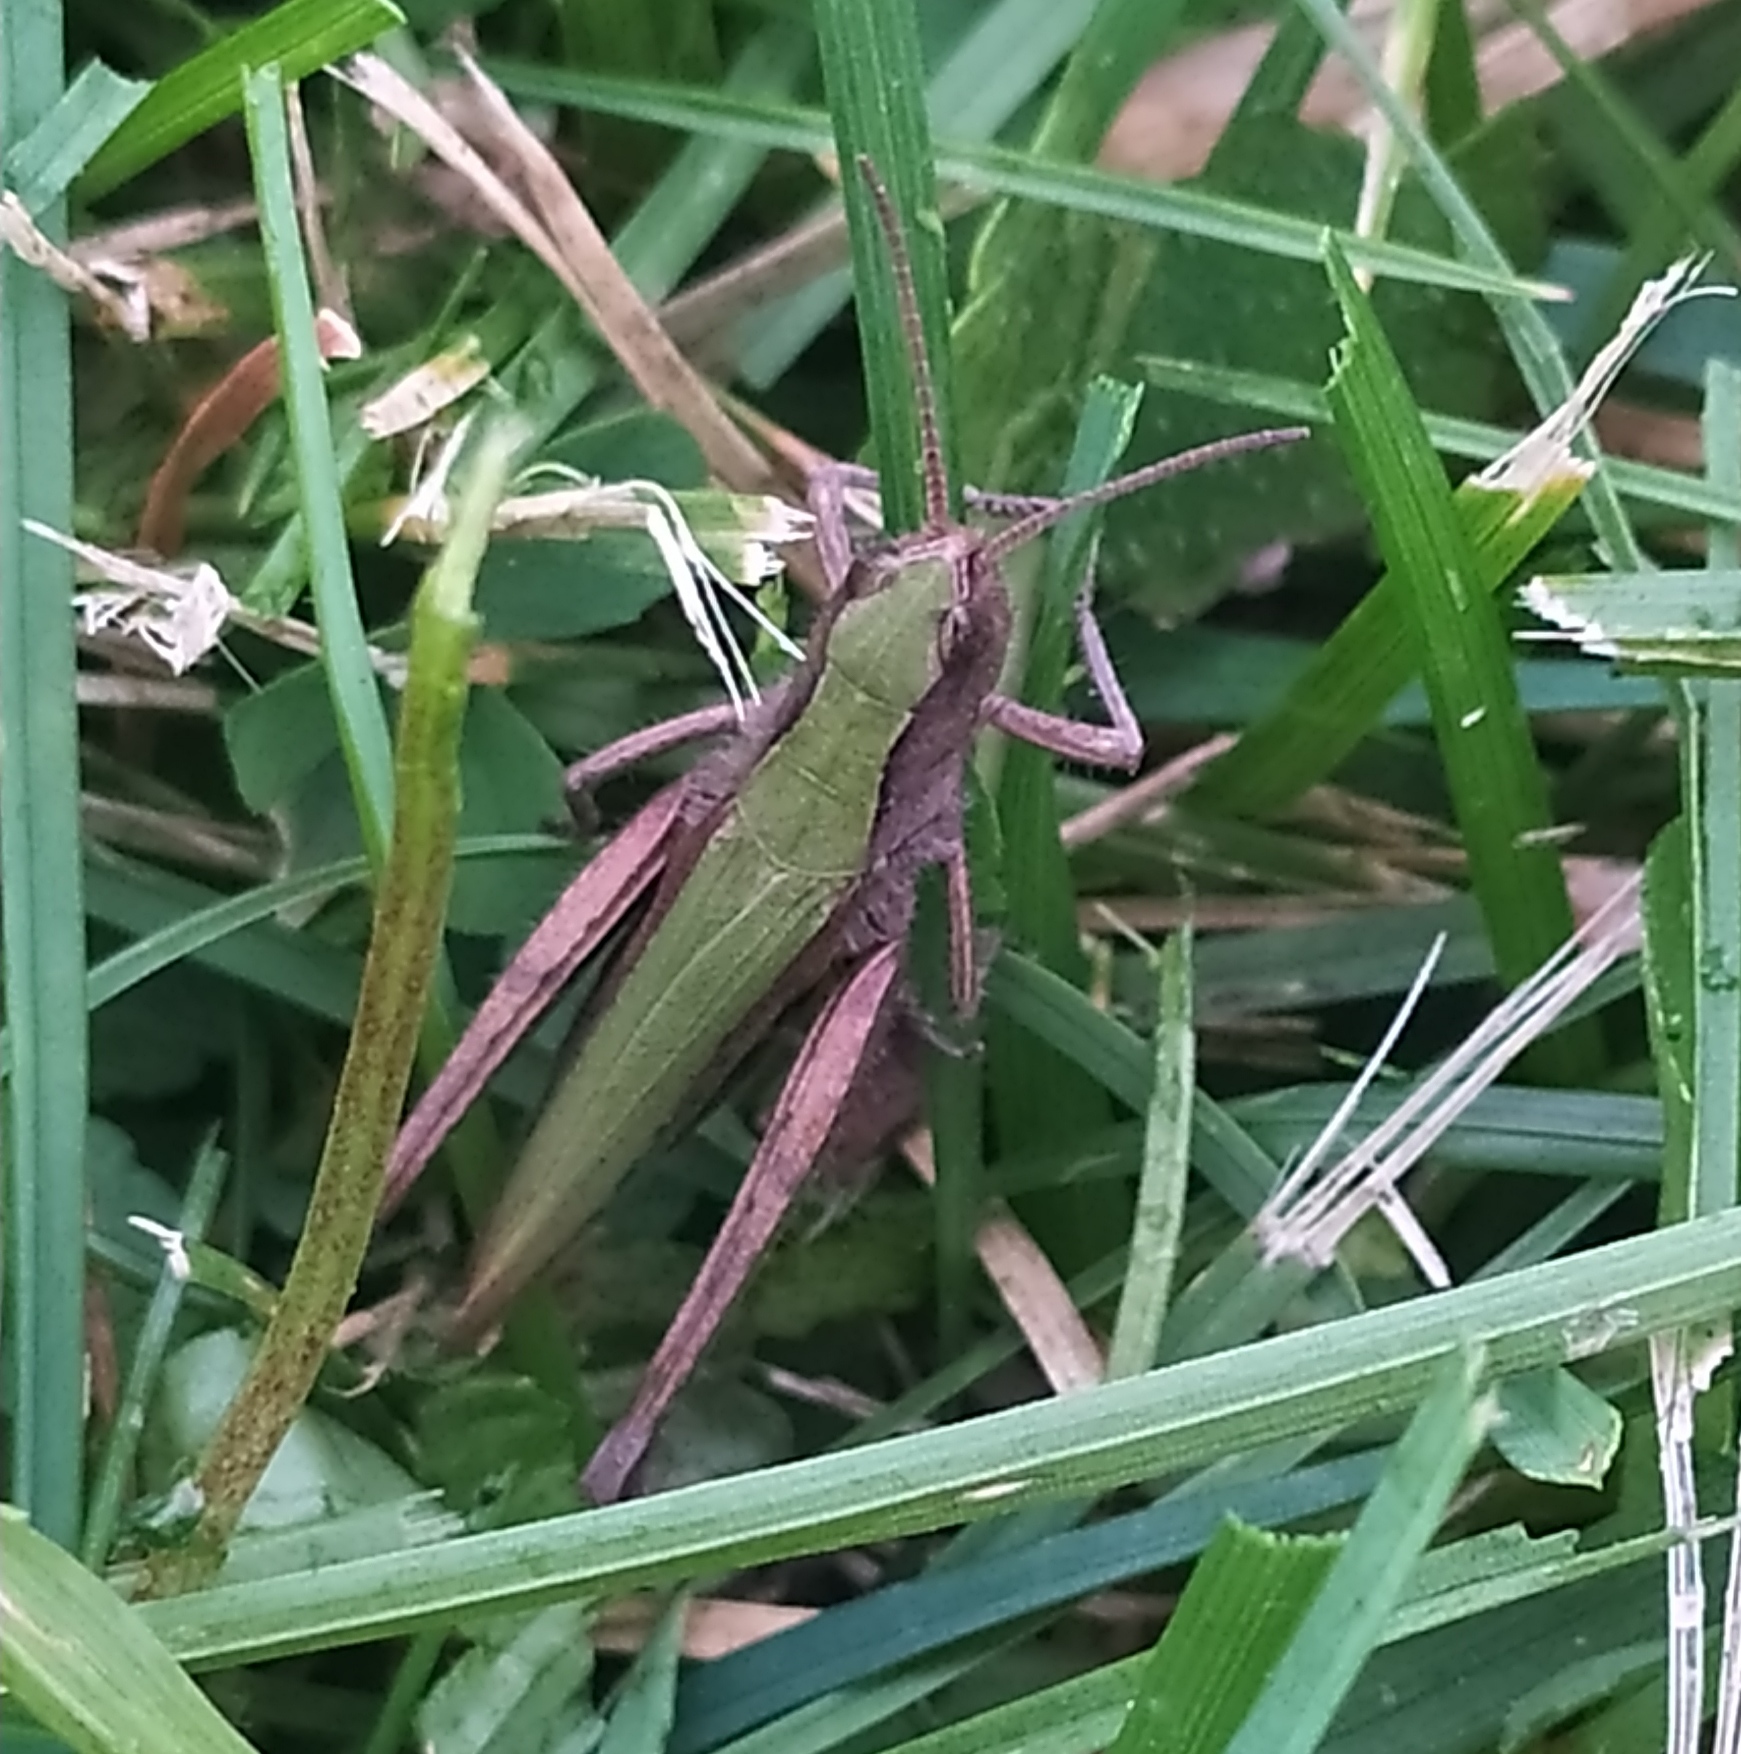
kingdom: Animalia
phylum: Arthropoda
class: Insecta
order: Orthoptera
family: Acrididae
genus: Chorthippus
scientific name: Chorthippus dorsatus
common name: Steppe grasshopper
